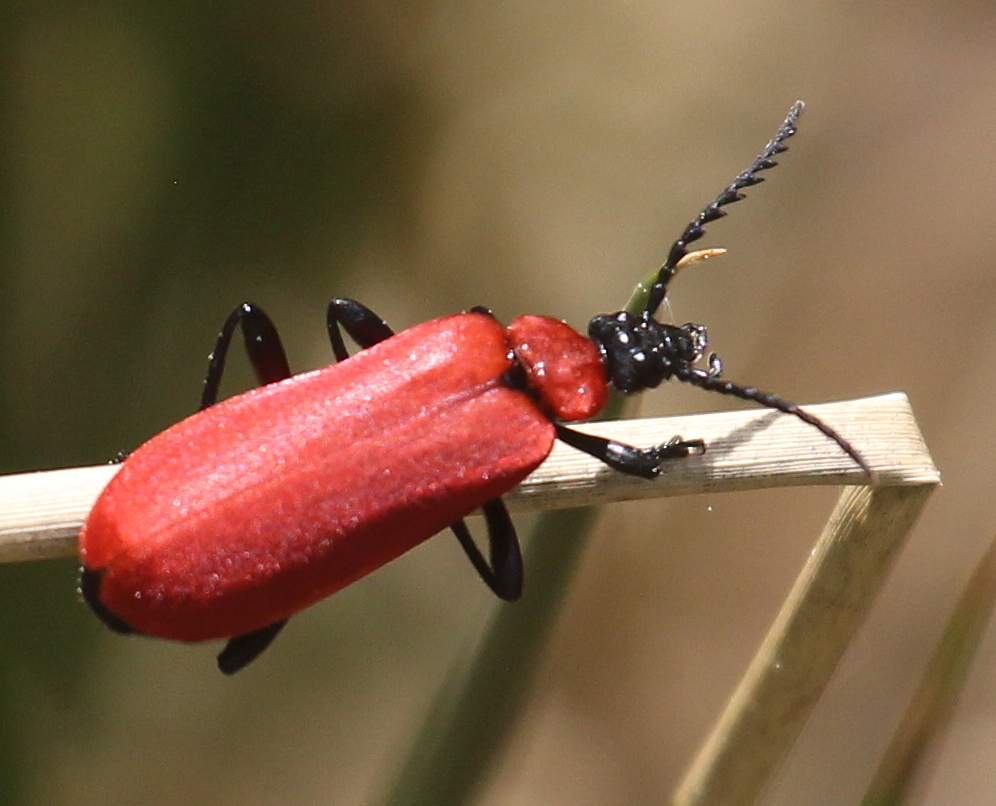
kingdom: Animalia
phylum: Arthropoda
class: Insecta
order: Coleoptera
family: Pyrochroidae
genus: Pyrochroa
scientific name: Pyrochroa coccinea
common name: Black-headed cardinal beetle
